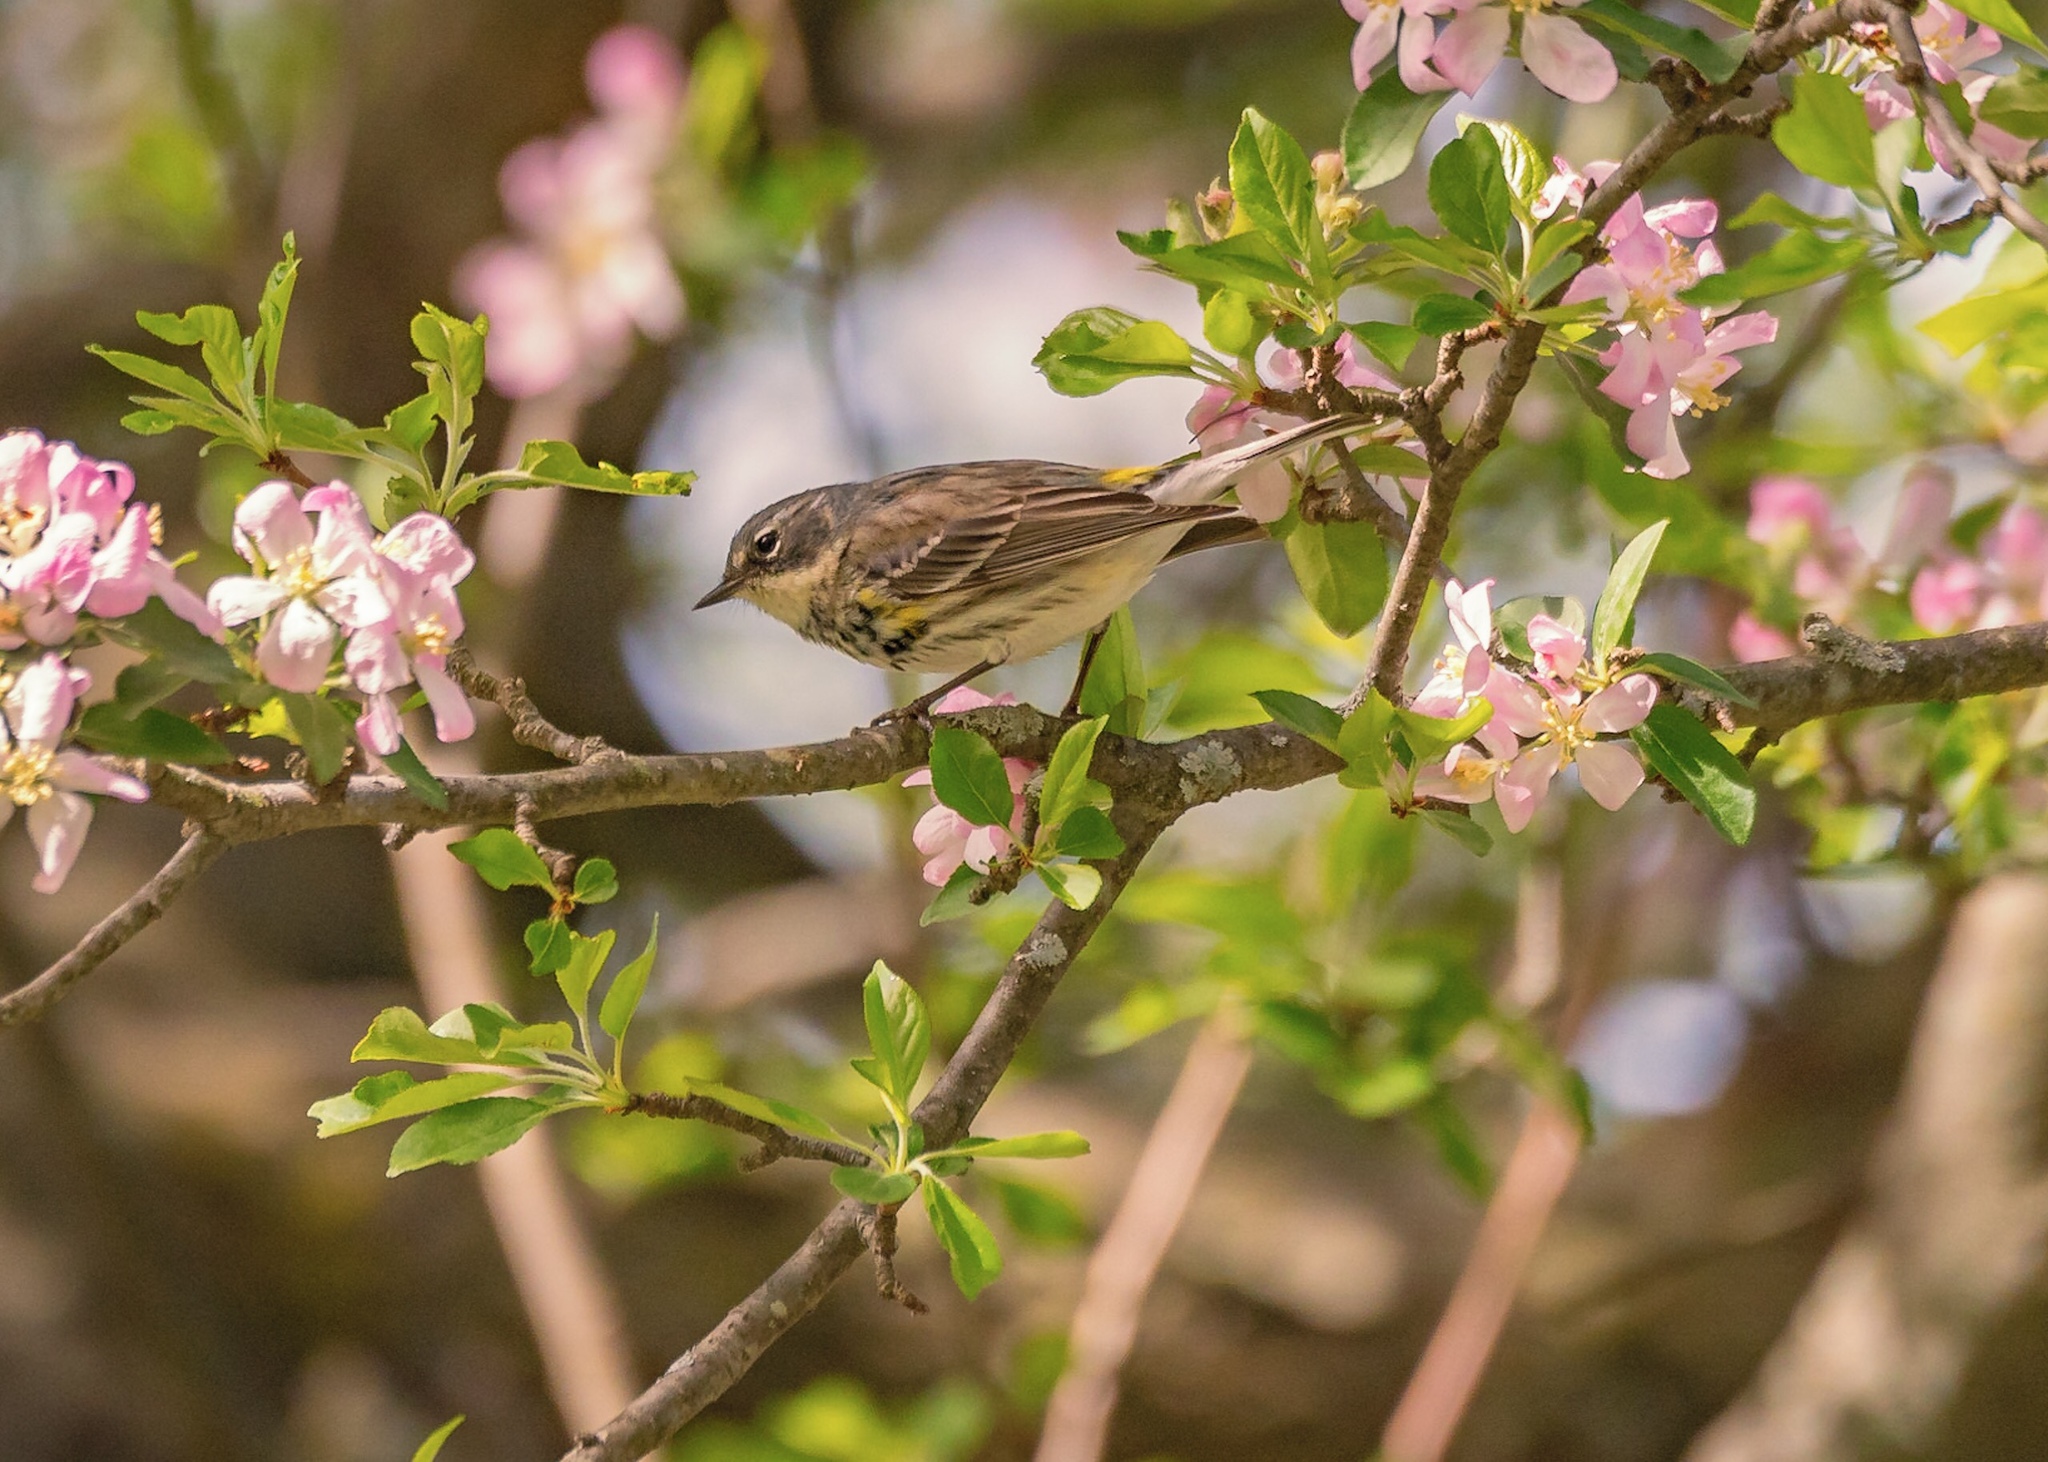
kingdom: Animalia
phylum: Chordata
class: Aves
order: Passeriformes
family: Parulidae
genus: Setophaga
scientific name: Setophaga coronata
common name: Myrtle warbler
